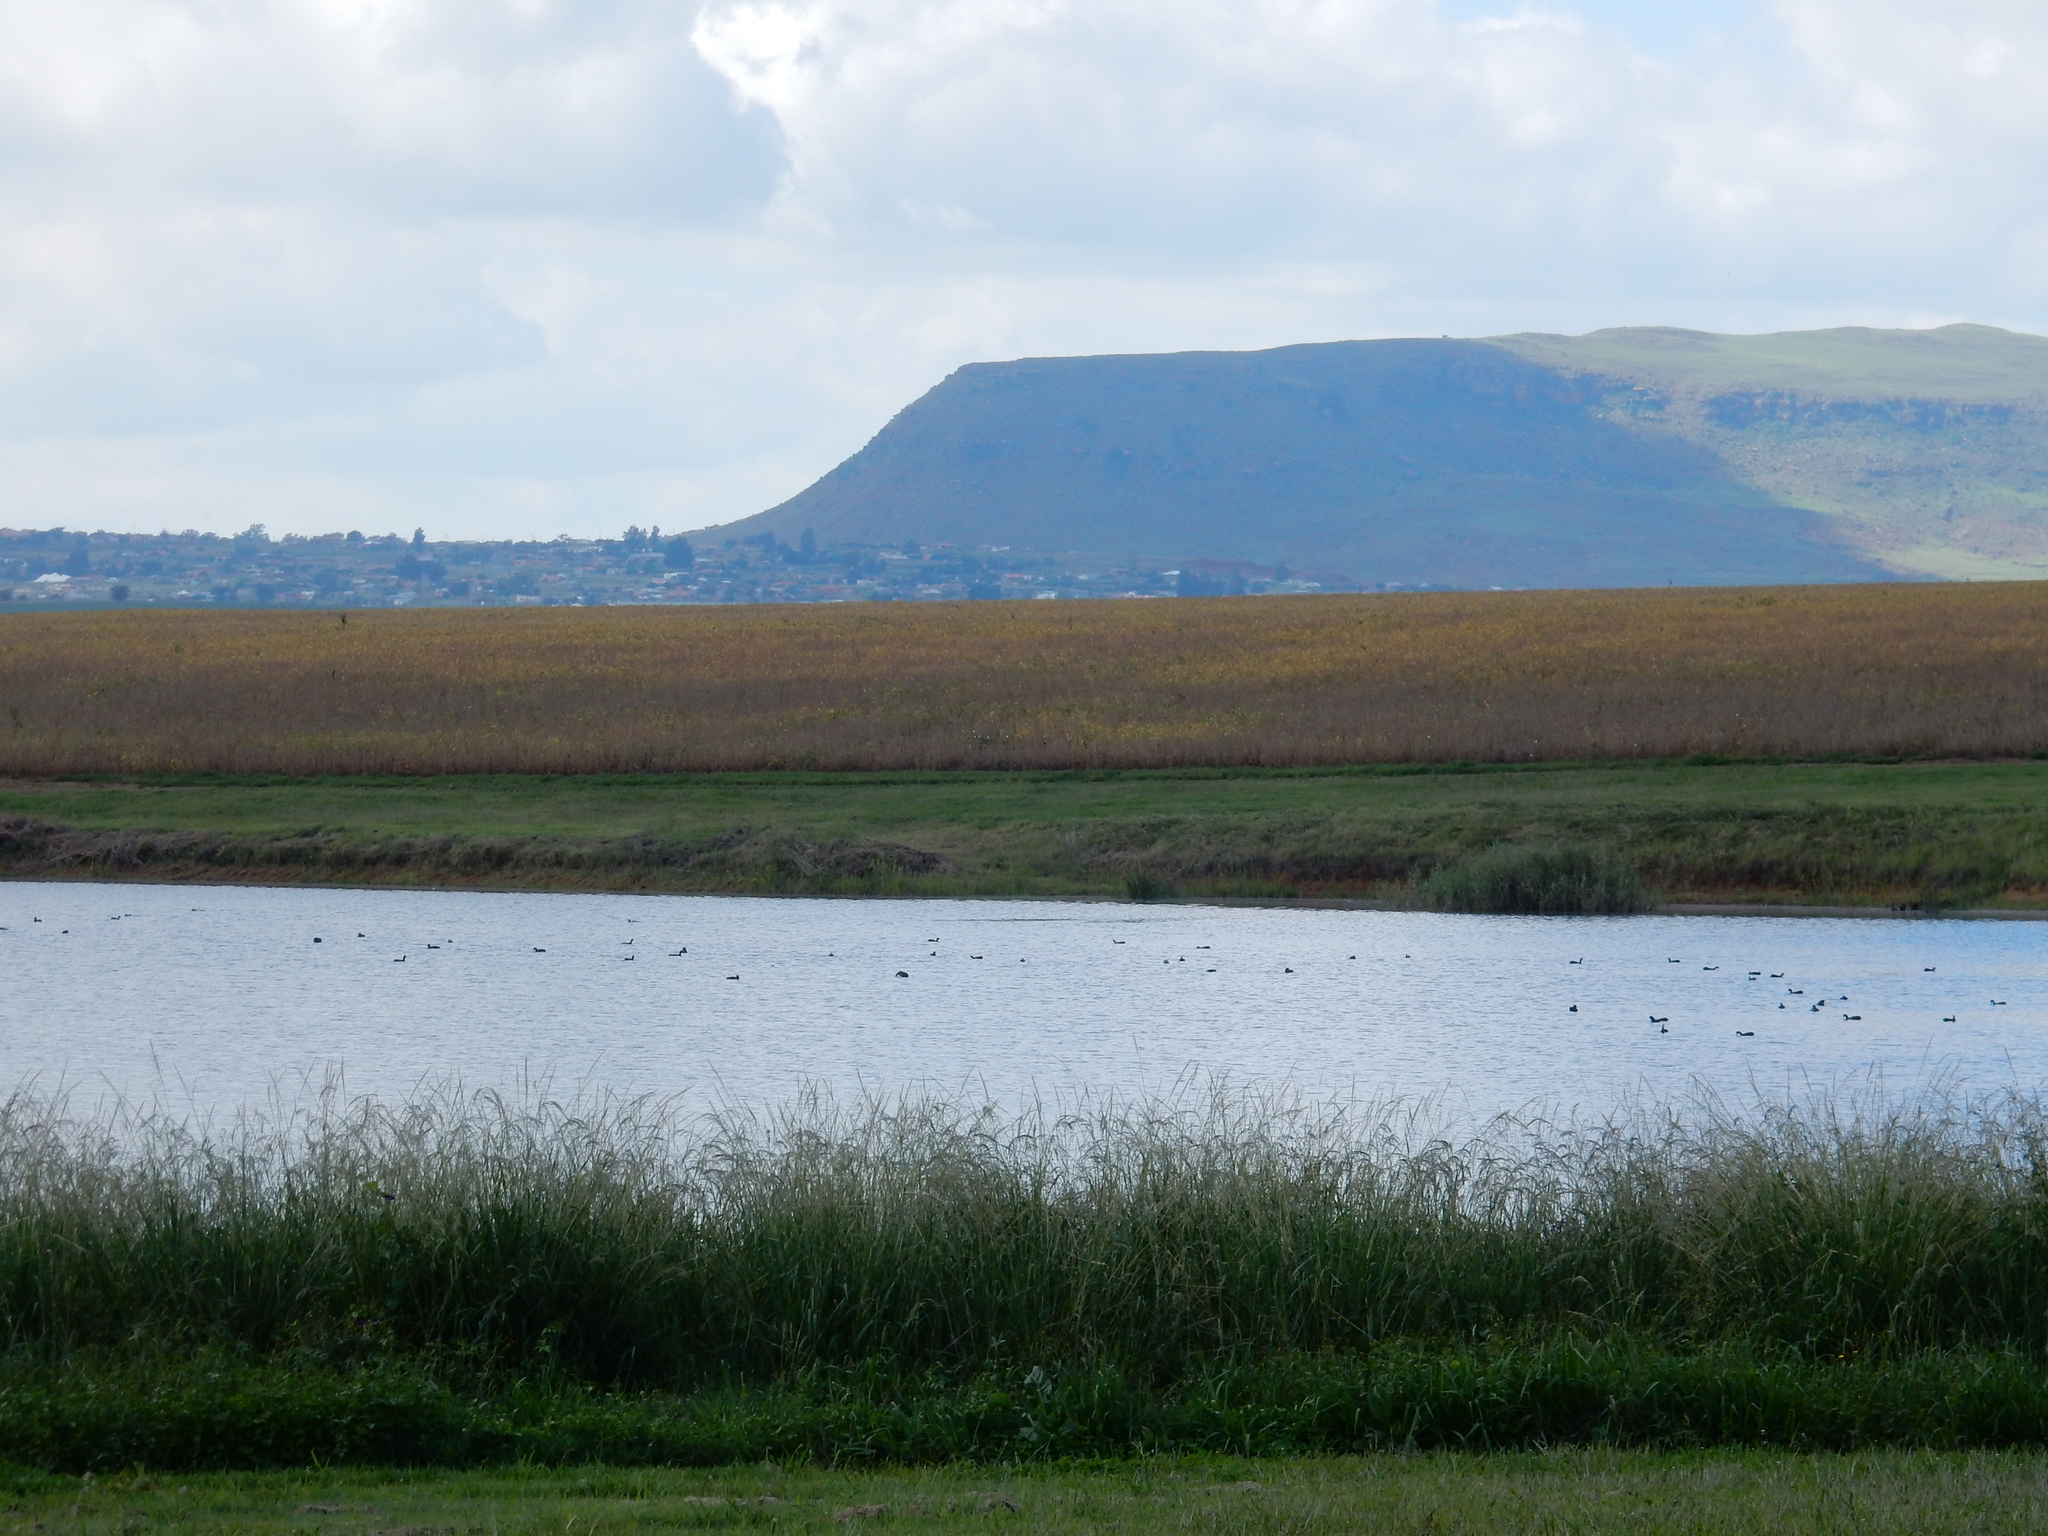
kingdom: Animalia
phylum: Chordata
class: Aves
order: Gruiformes
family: Rallidae
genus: Fulica
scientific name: Fulica cristata
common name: Red-knobbed coot
